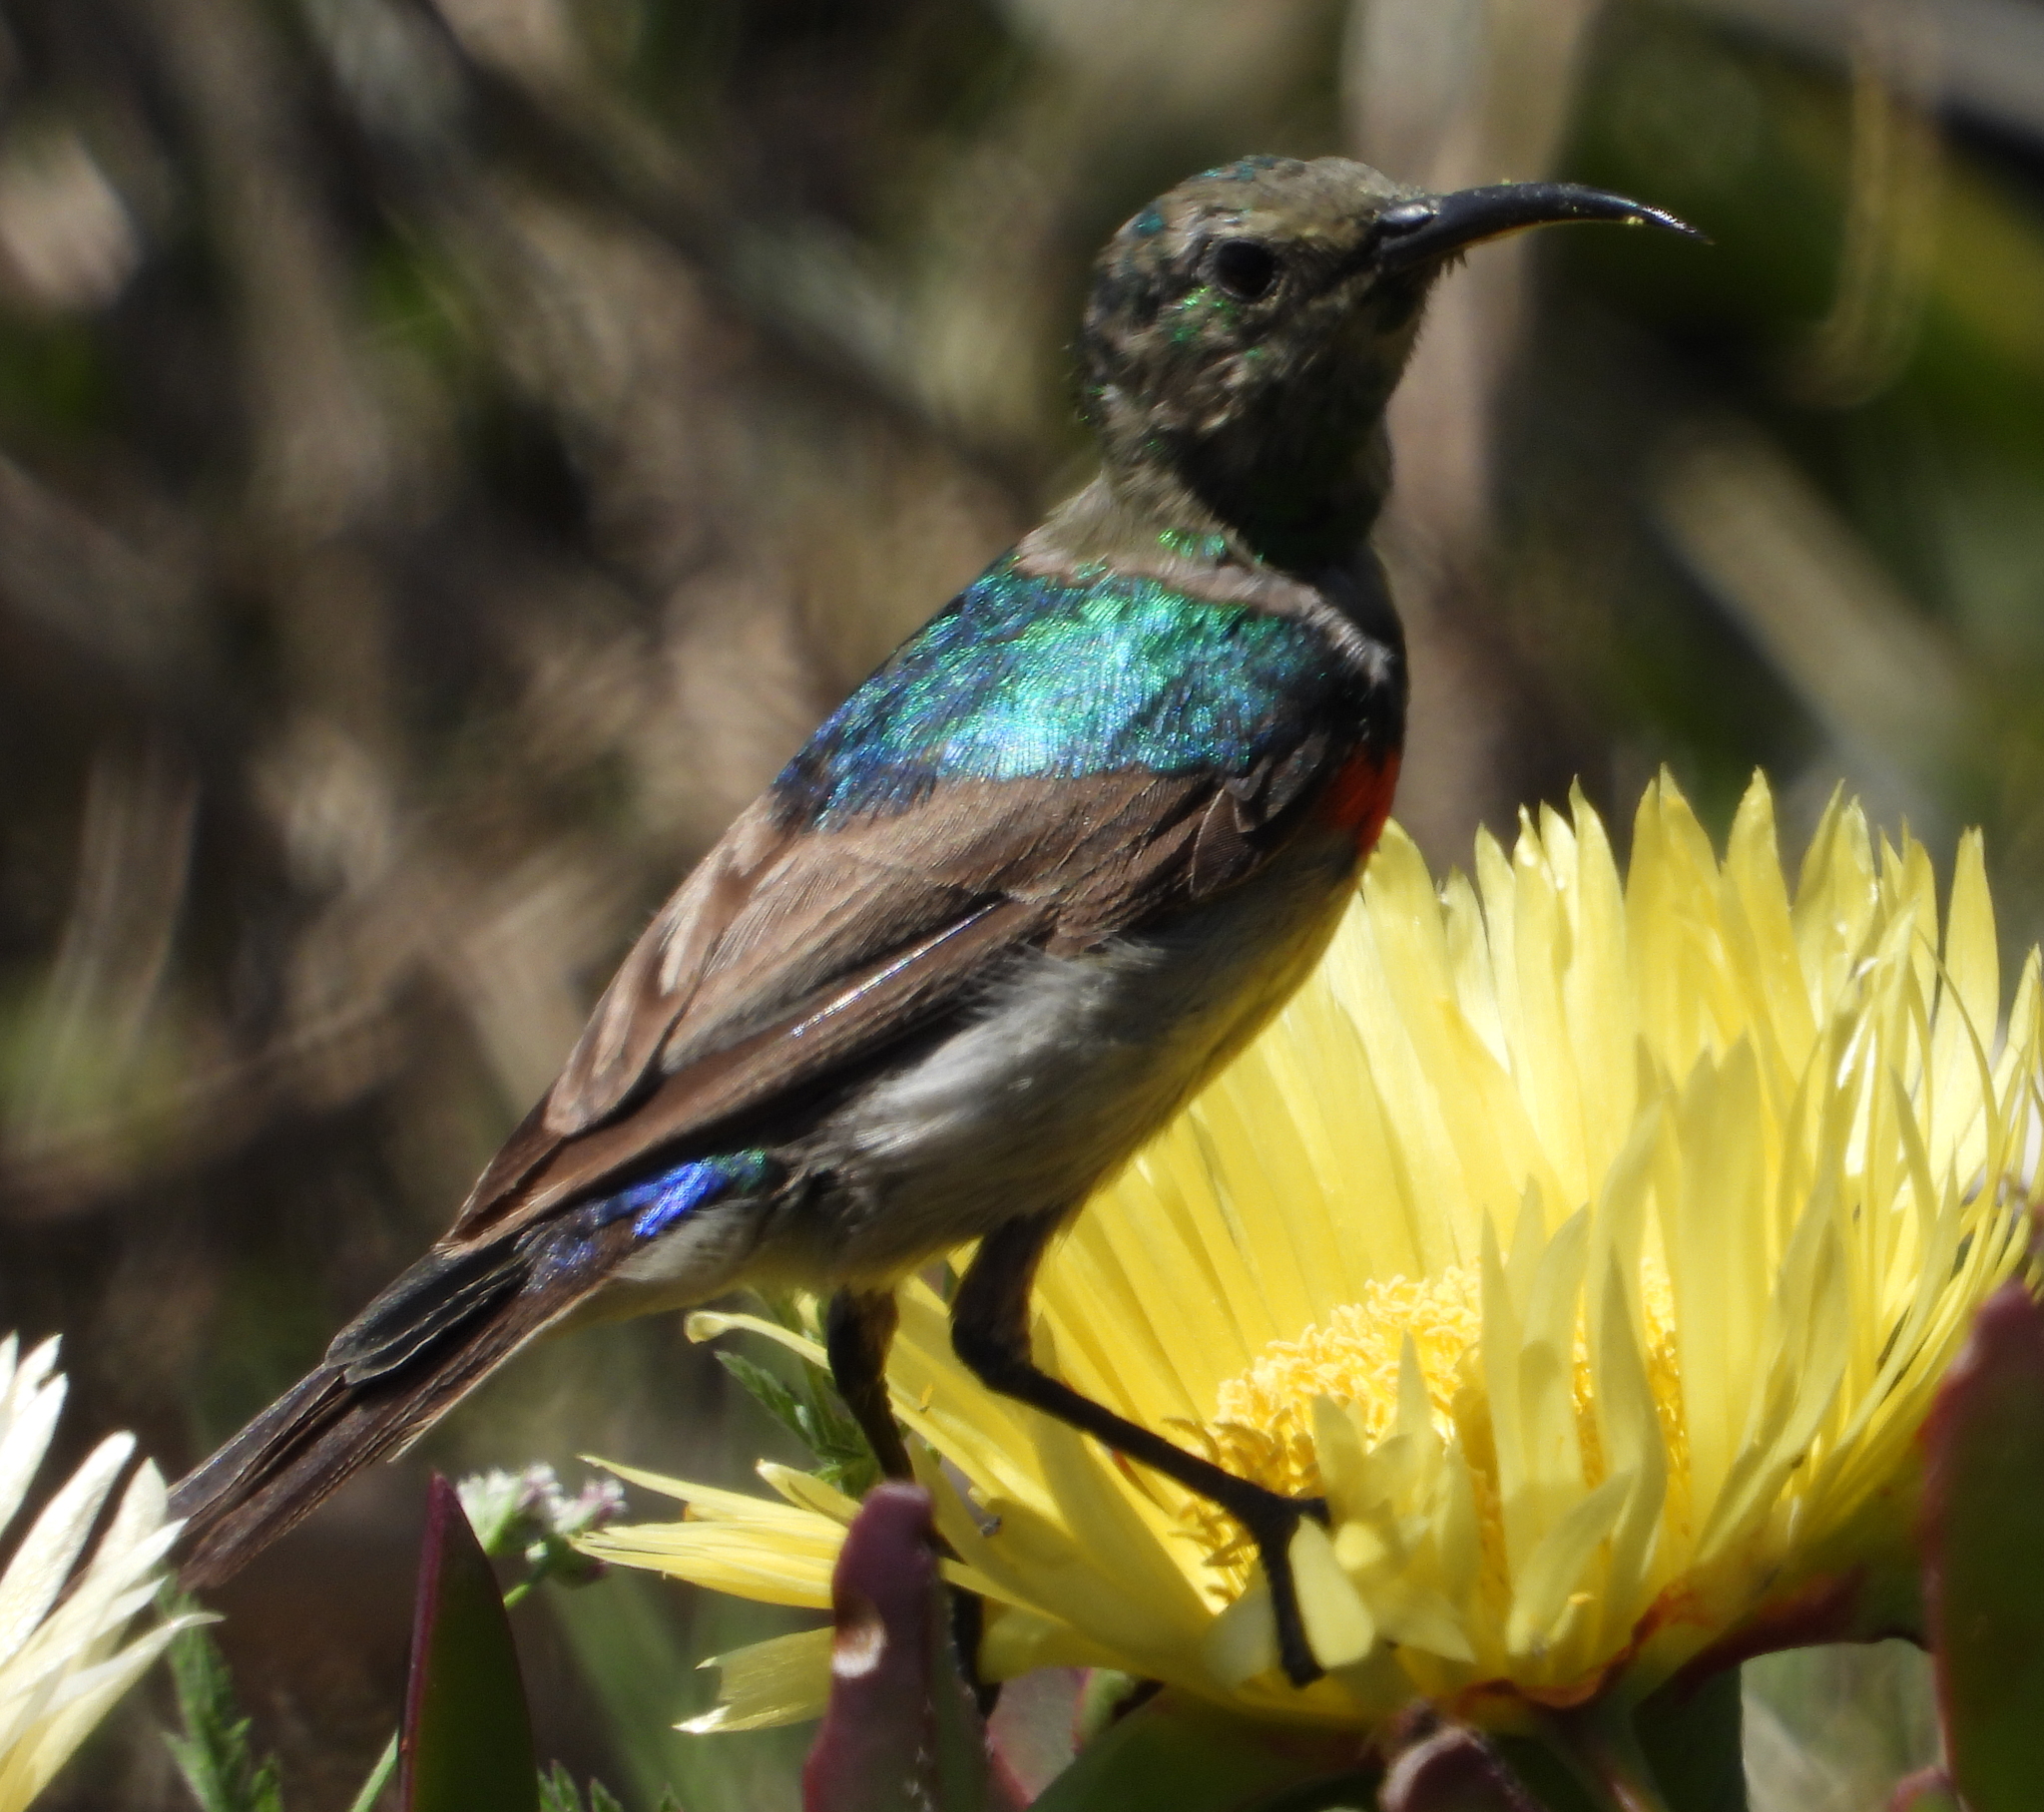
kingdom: Animalia
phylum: Chordata
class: Aves
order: Passeriformes
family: Nectariniidae
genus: Cinnyris
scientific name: Cinnyris chalybeus
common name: Southern double-collared sunbird
